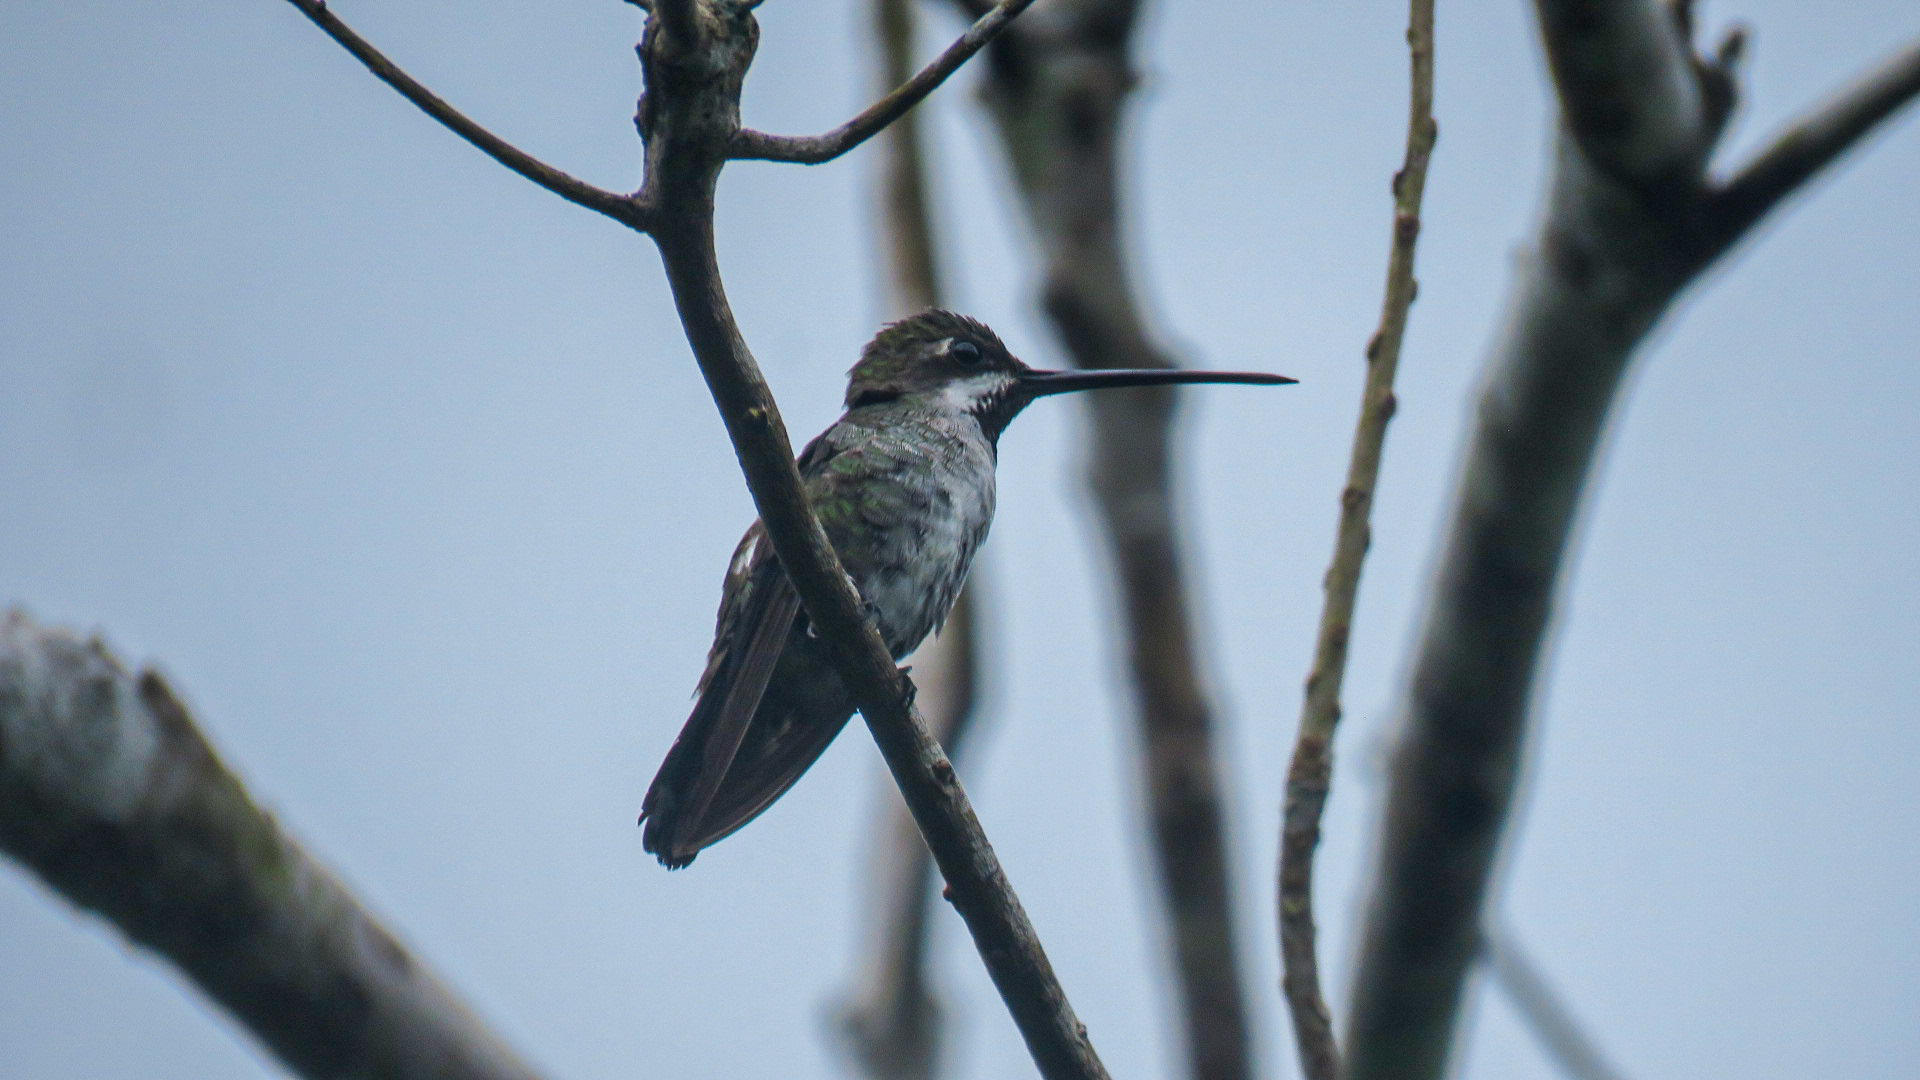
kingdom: Animalia
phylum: Chordata
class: Aves
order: Apodiformes
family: Trochilidae
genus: Heliomaster
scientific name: Heliomaster longirostris
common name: Long-billed starthroat
